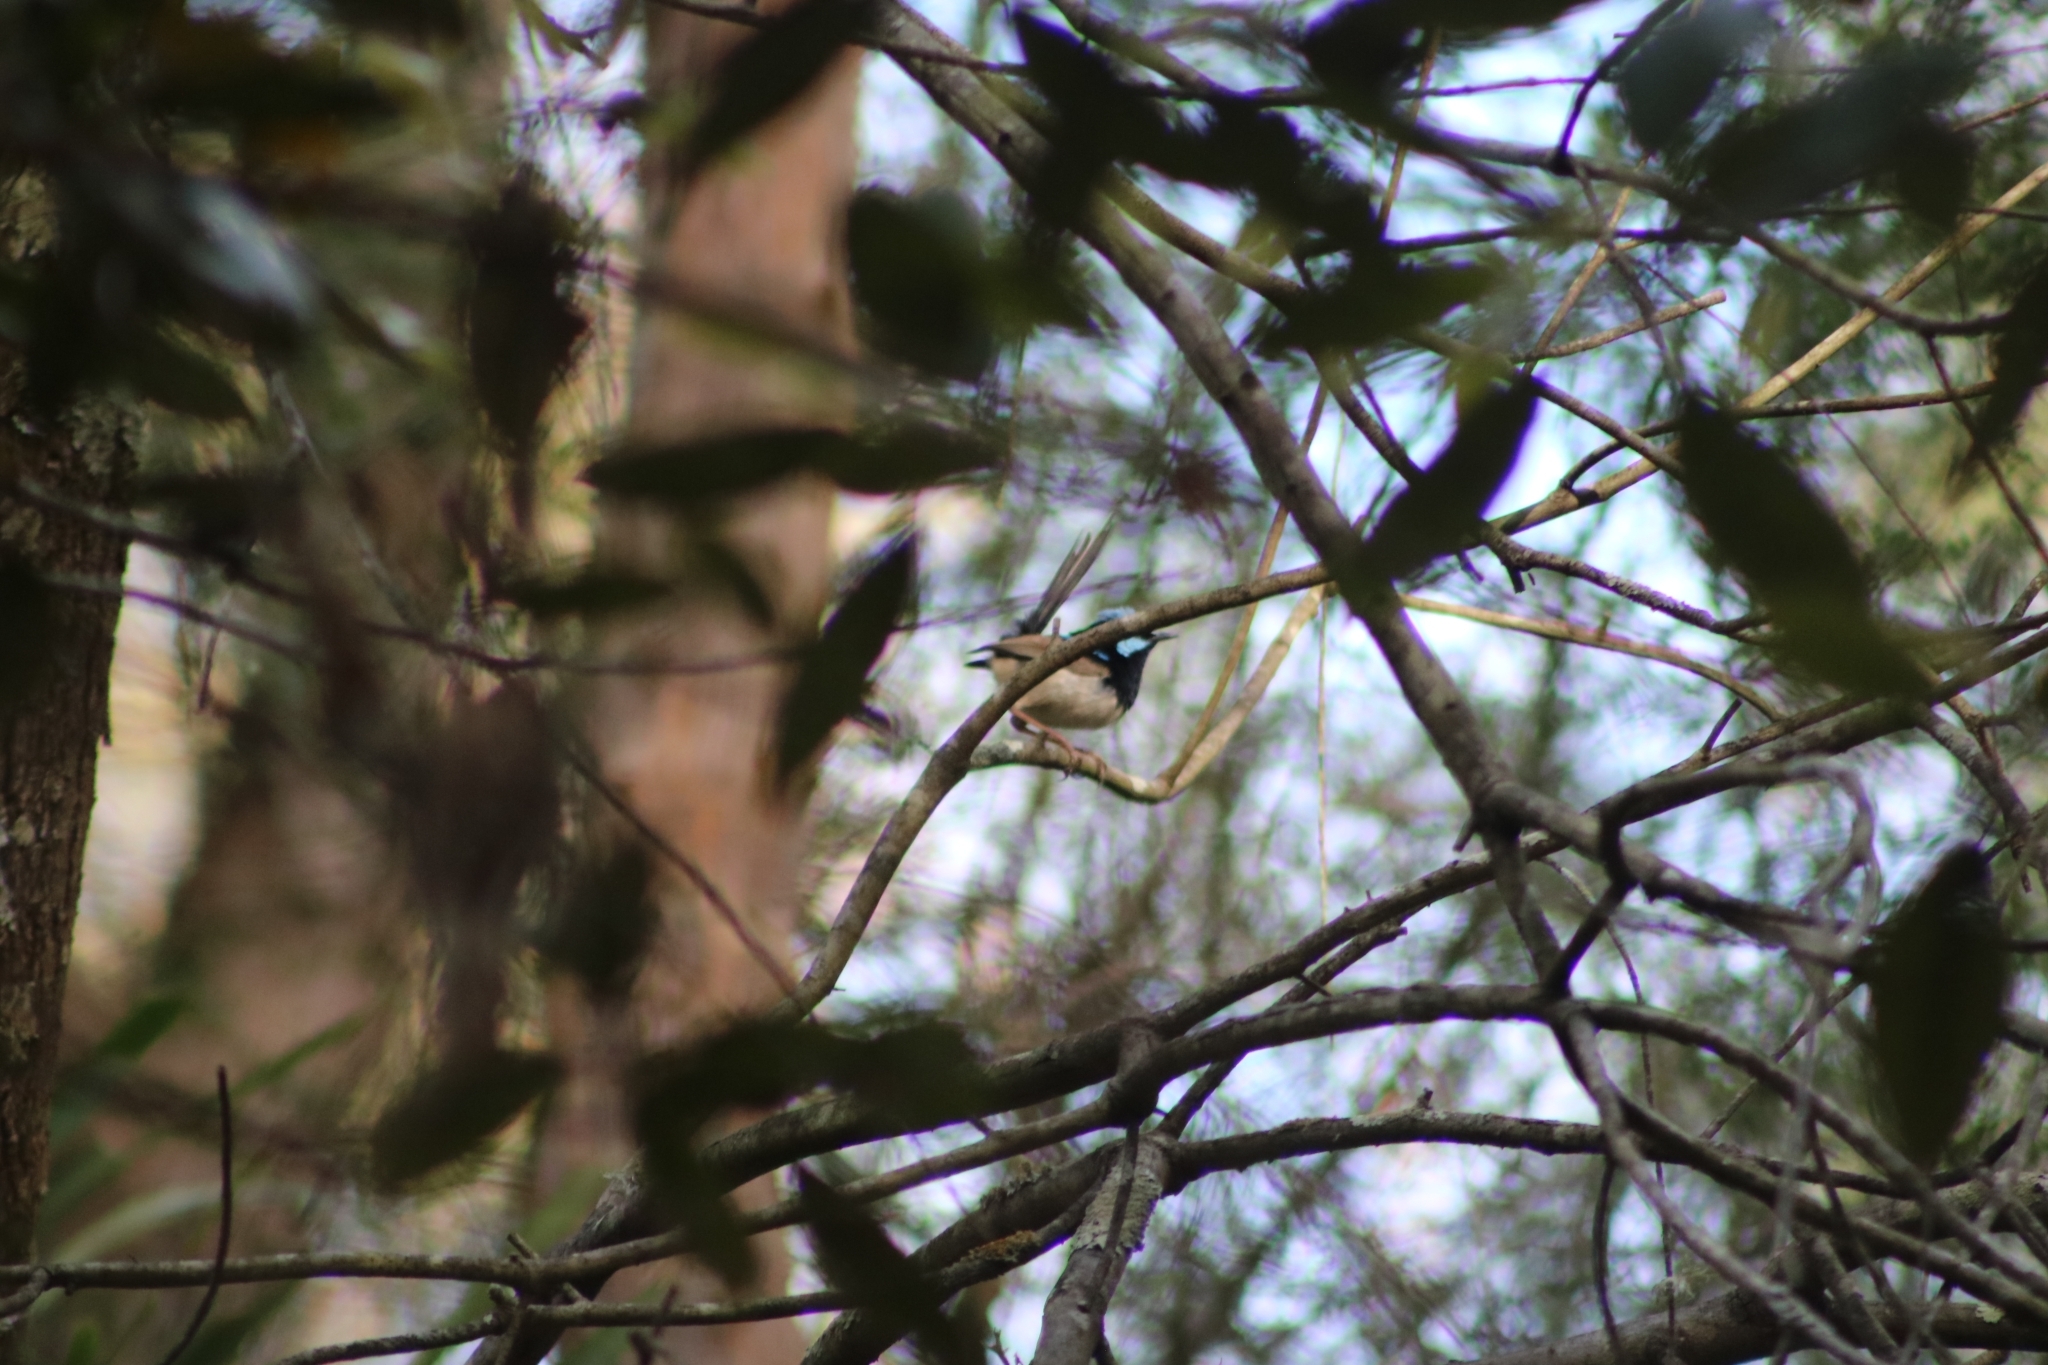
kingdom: Animalia
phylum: Chordata
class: Aves
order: Passeriformes
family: Maluridae
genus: Malurus
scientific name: Malurus cyaneus
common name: Superb fairywren
